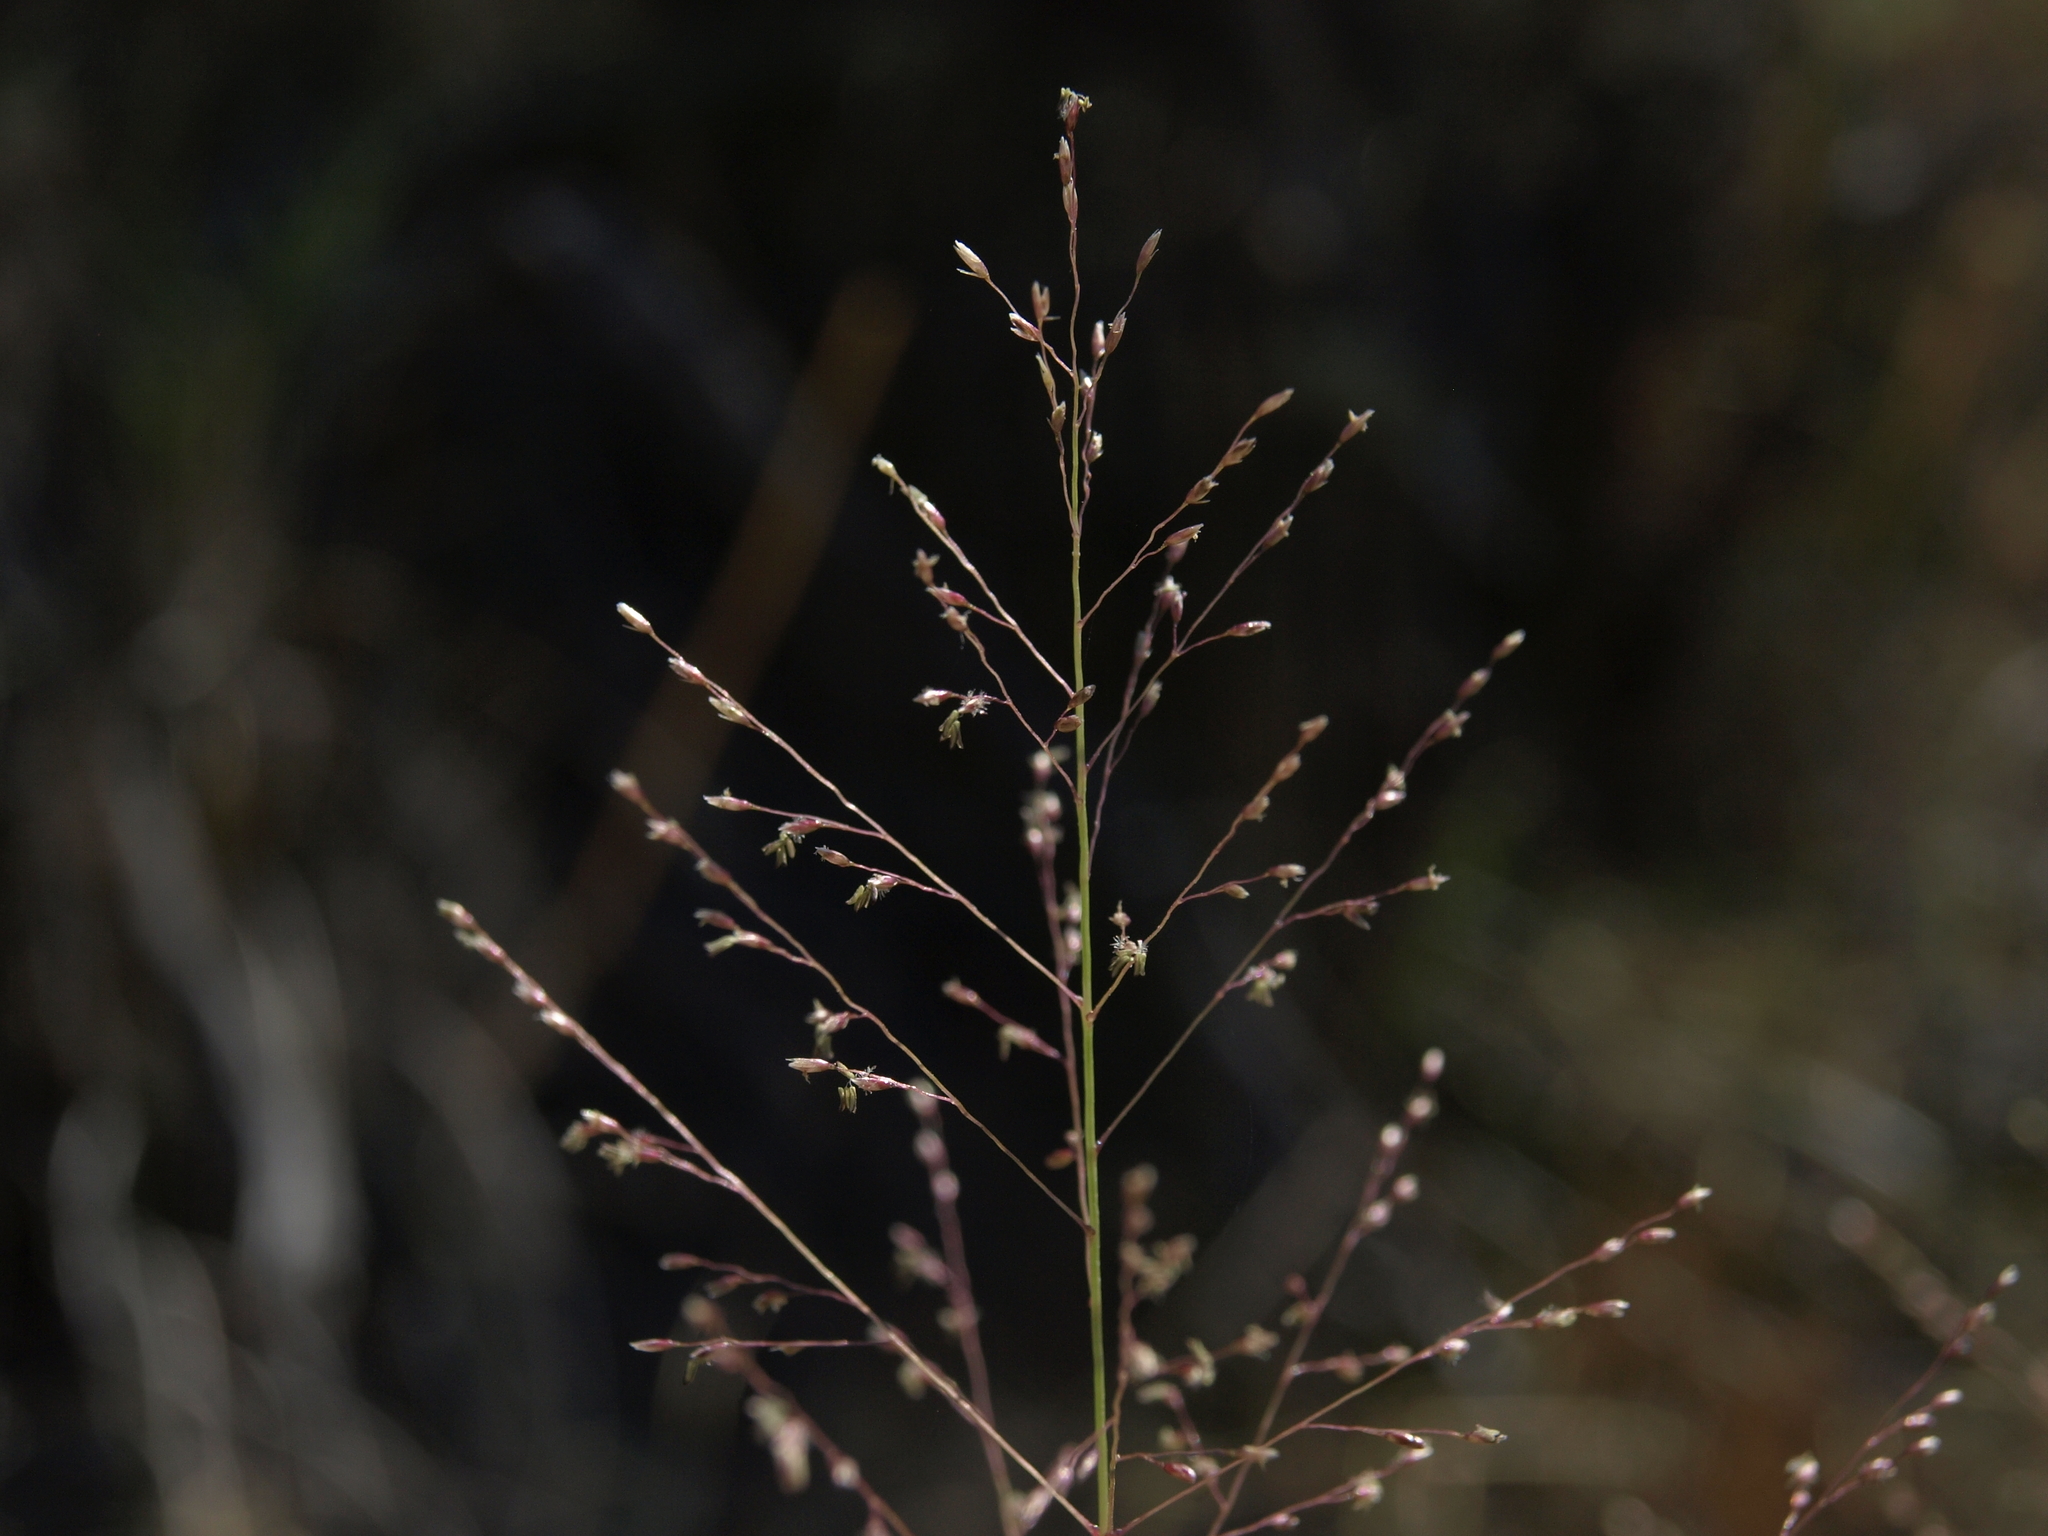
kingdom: Plantae
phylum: Tracheophyta
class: Liliopsida
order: Poales
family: Poaceae
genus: Sporobolus
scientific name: Sporobolus airoides
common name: Alkali sacaton
